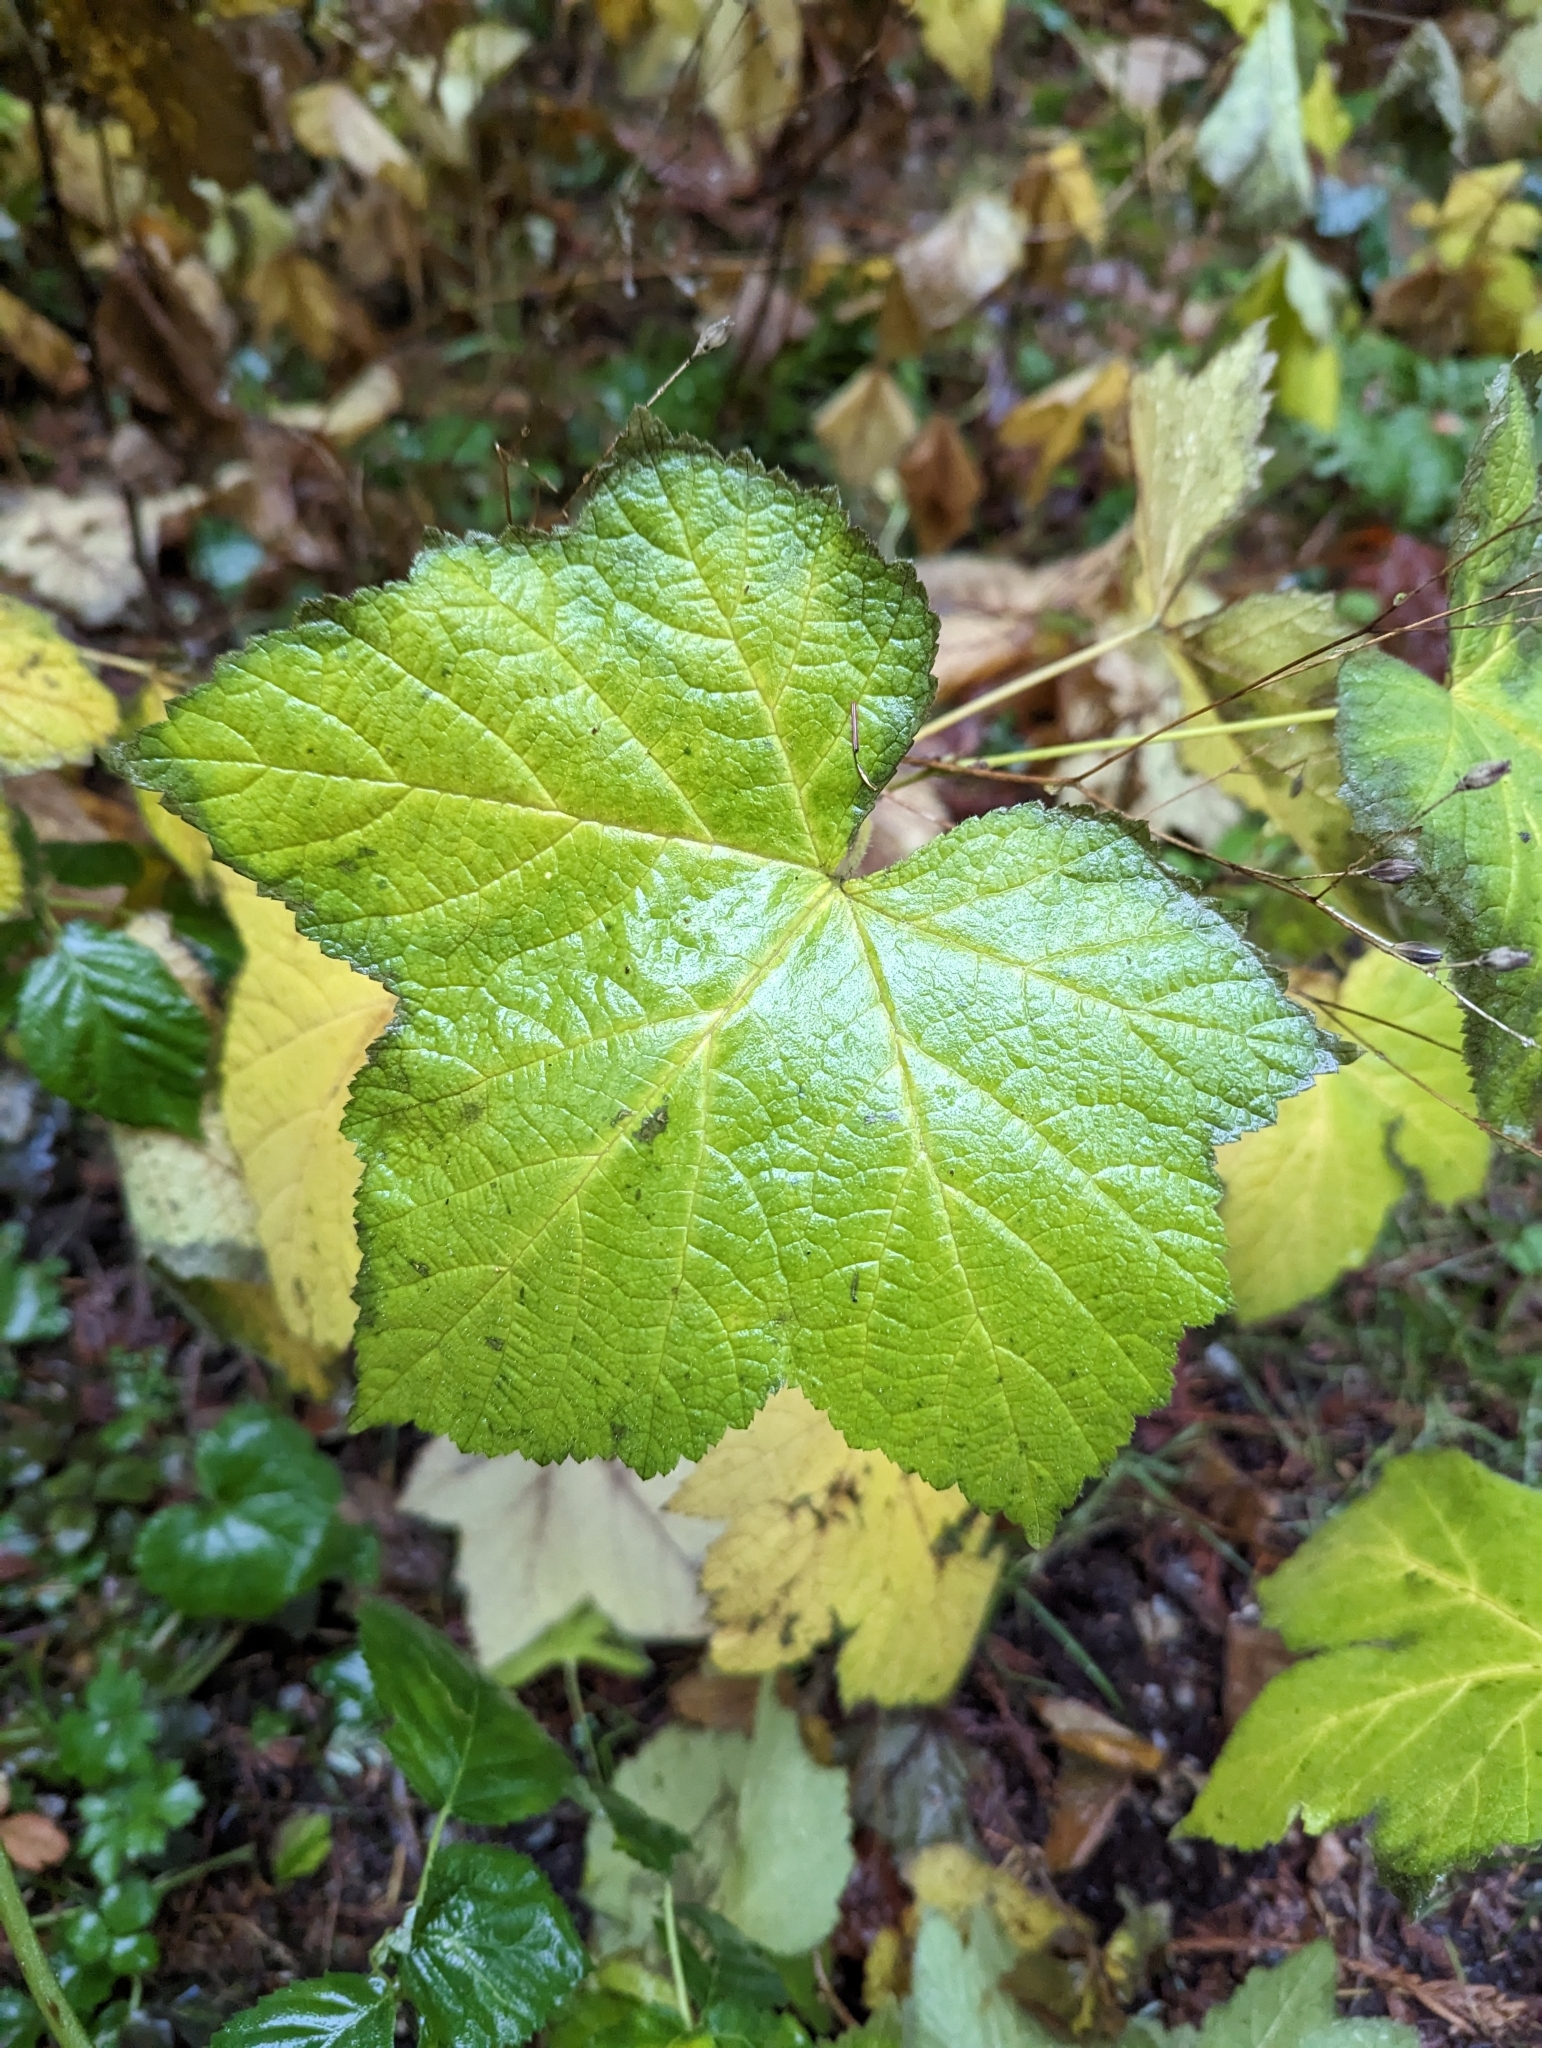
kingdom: Plantae
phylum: Tracheophyta
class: Magnoliopsida
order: Rosales
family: Rosaceae
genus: Rubus
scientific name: Rubus parviflorus
